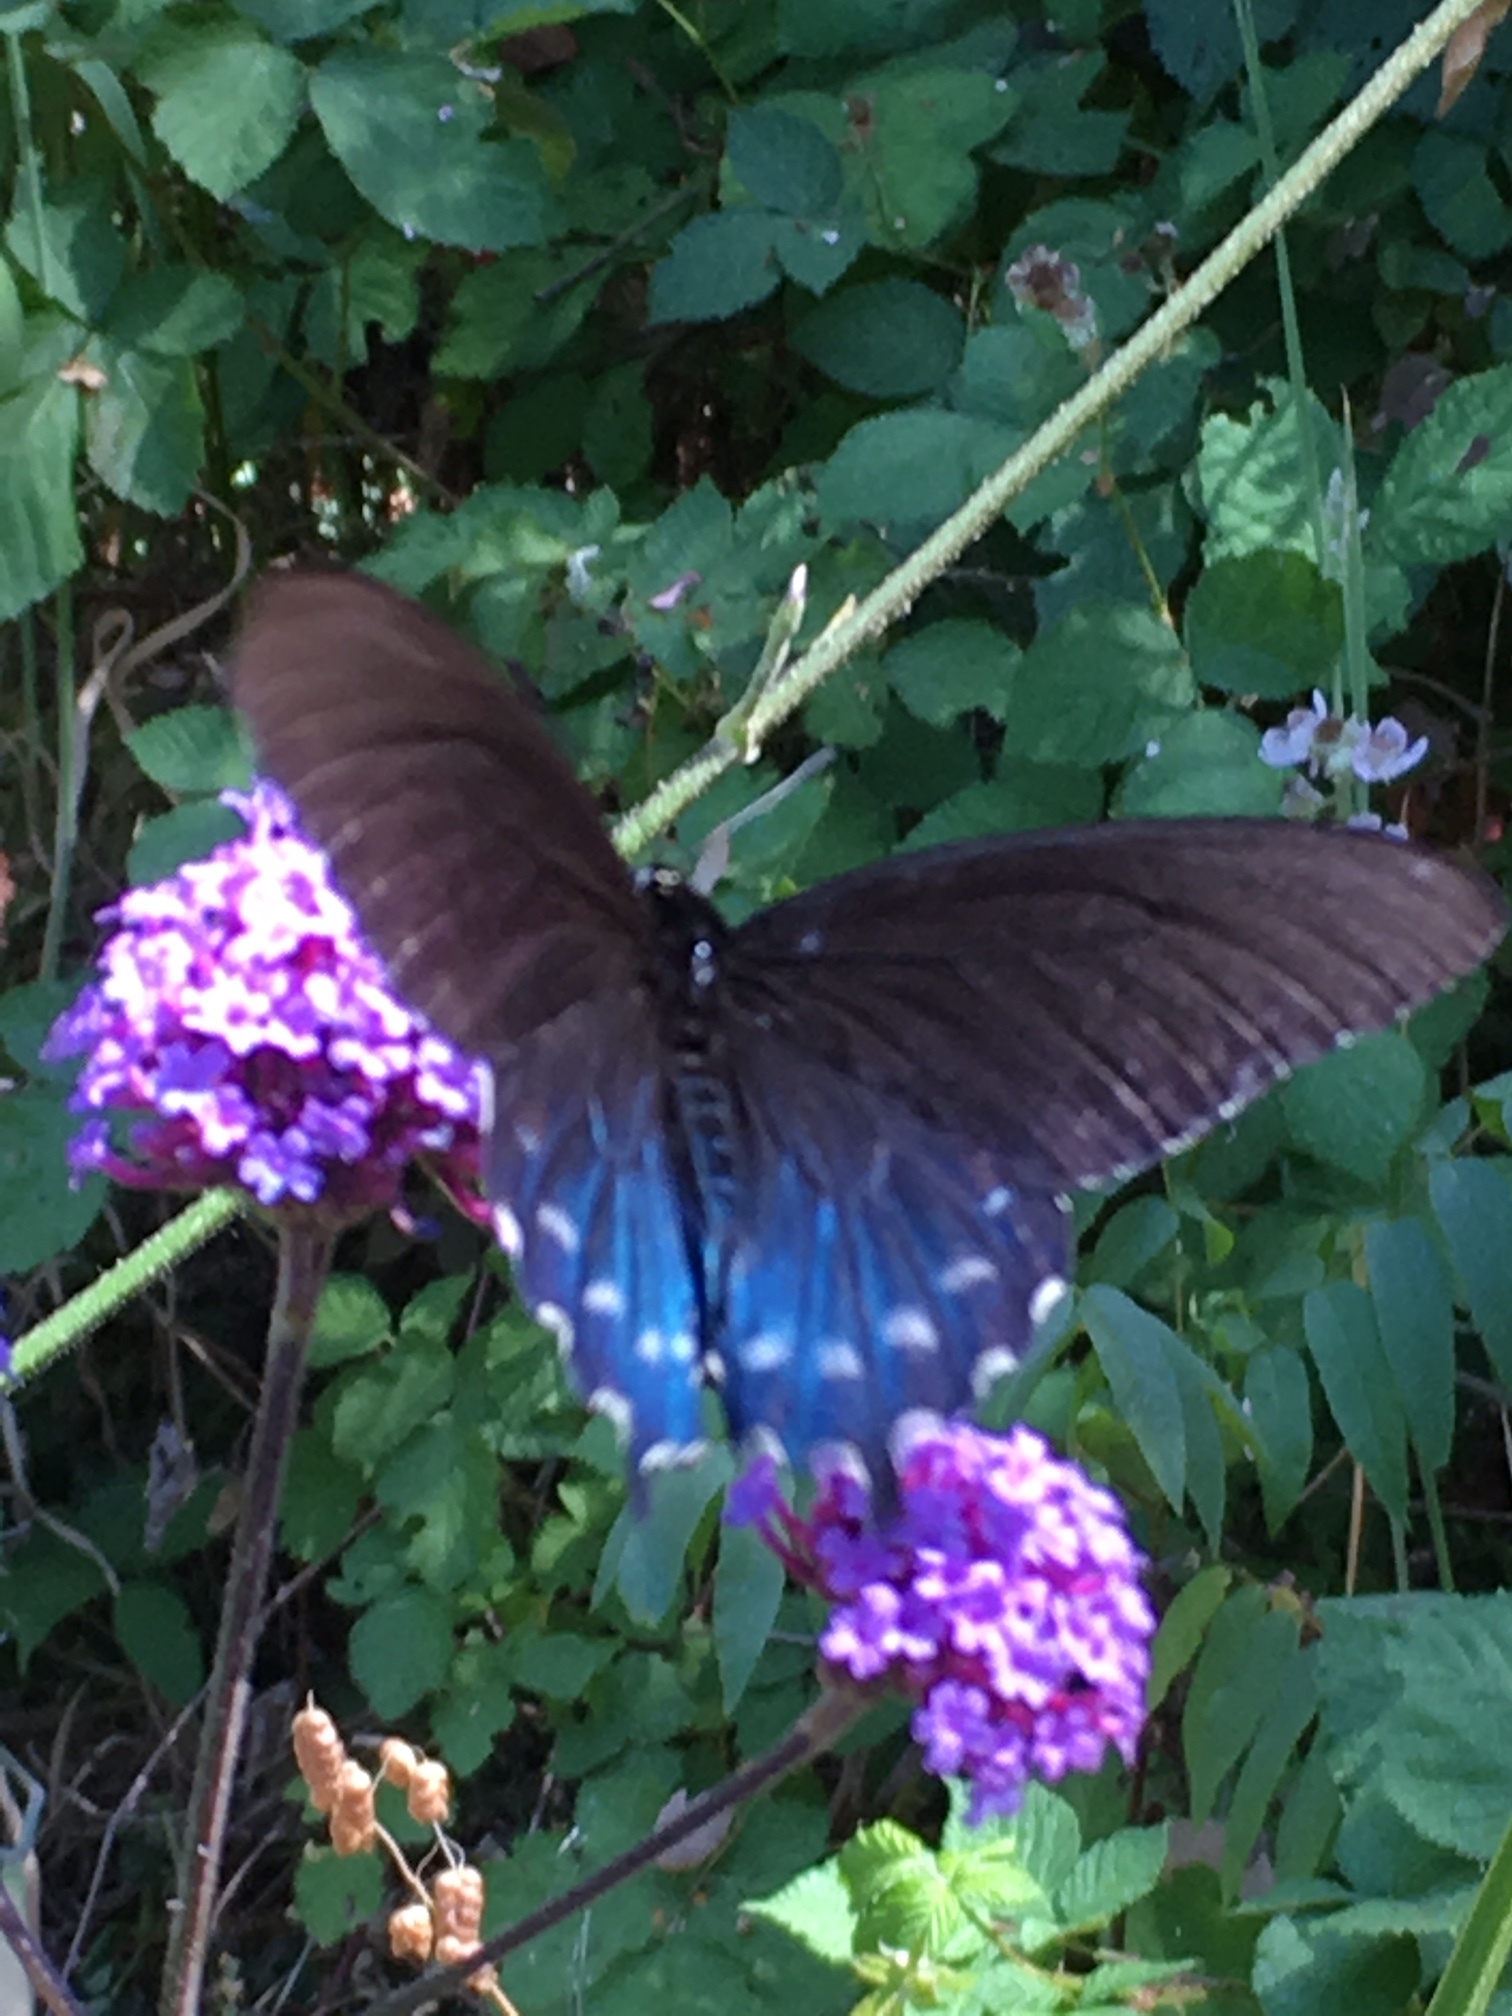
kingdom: Animalia
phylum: Arthropoda
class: Insecta
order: Lepidoptera
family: Papilionidae
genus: Battus
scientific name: Battus philenor
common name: Pipevine swallowtail
